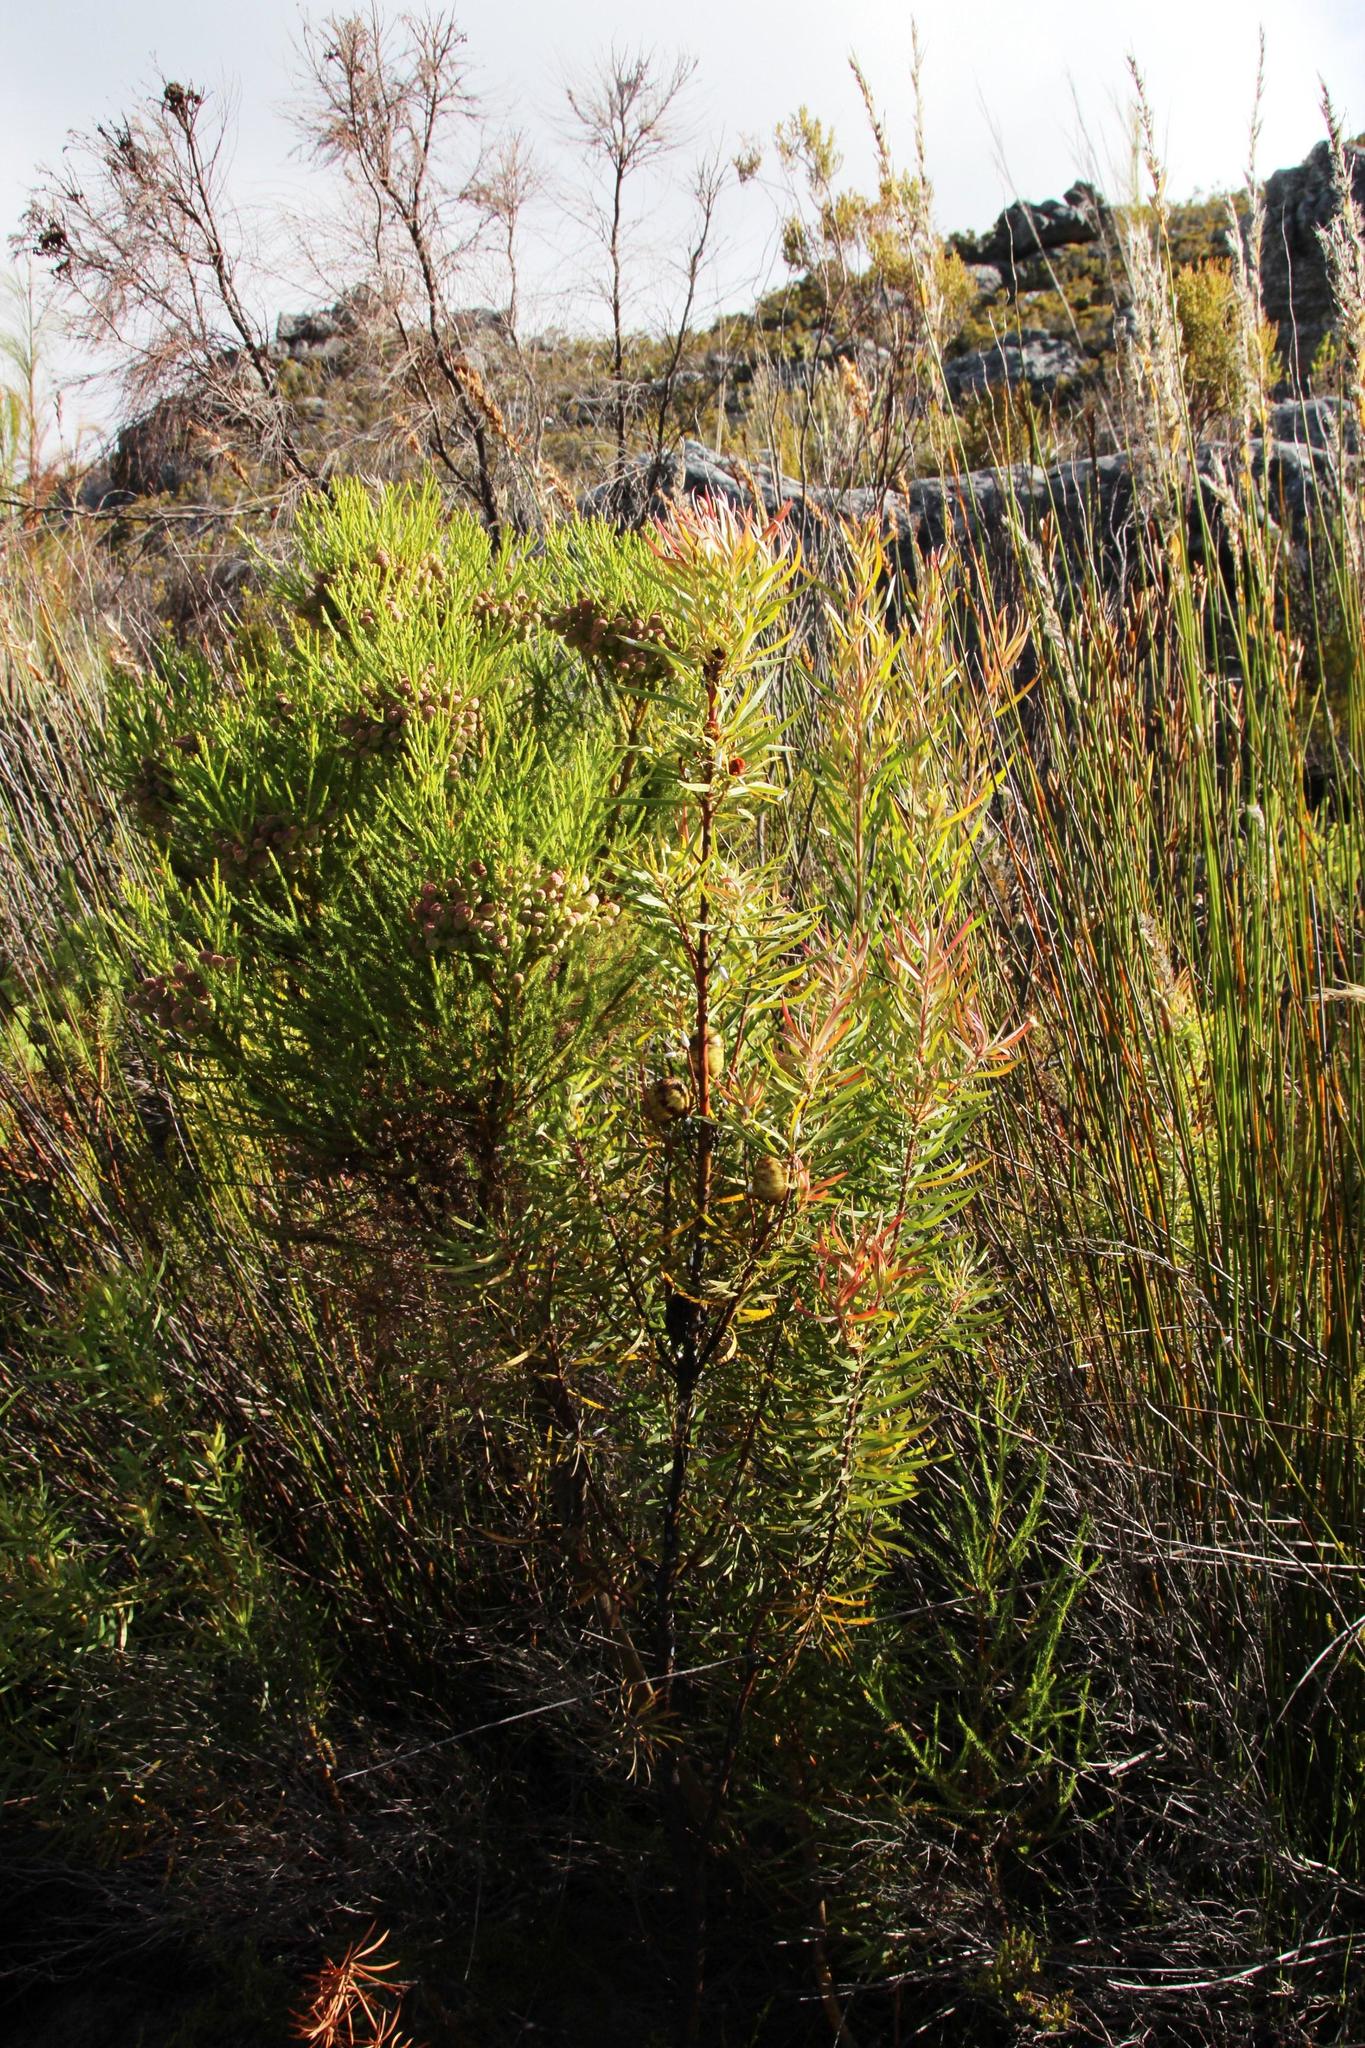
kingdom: Plantae
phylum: Tracheophyta
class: Magnoliopsida
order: Bruniales
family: Bruniaceae
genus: Berzelia
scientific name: Berzelia lanuginosa
